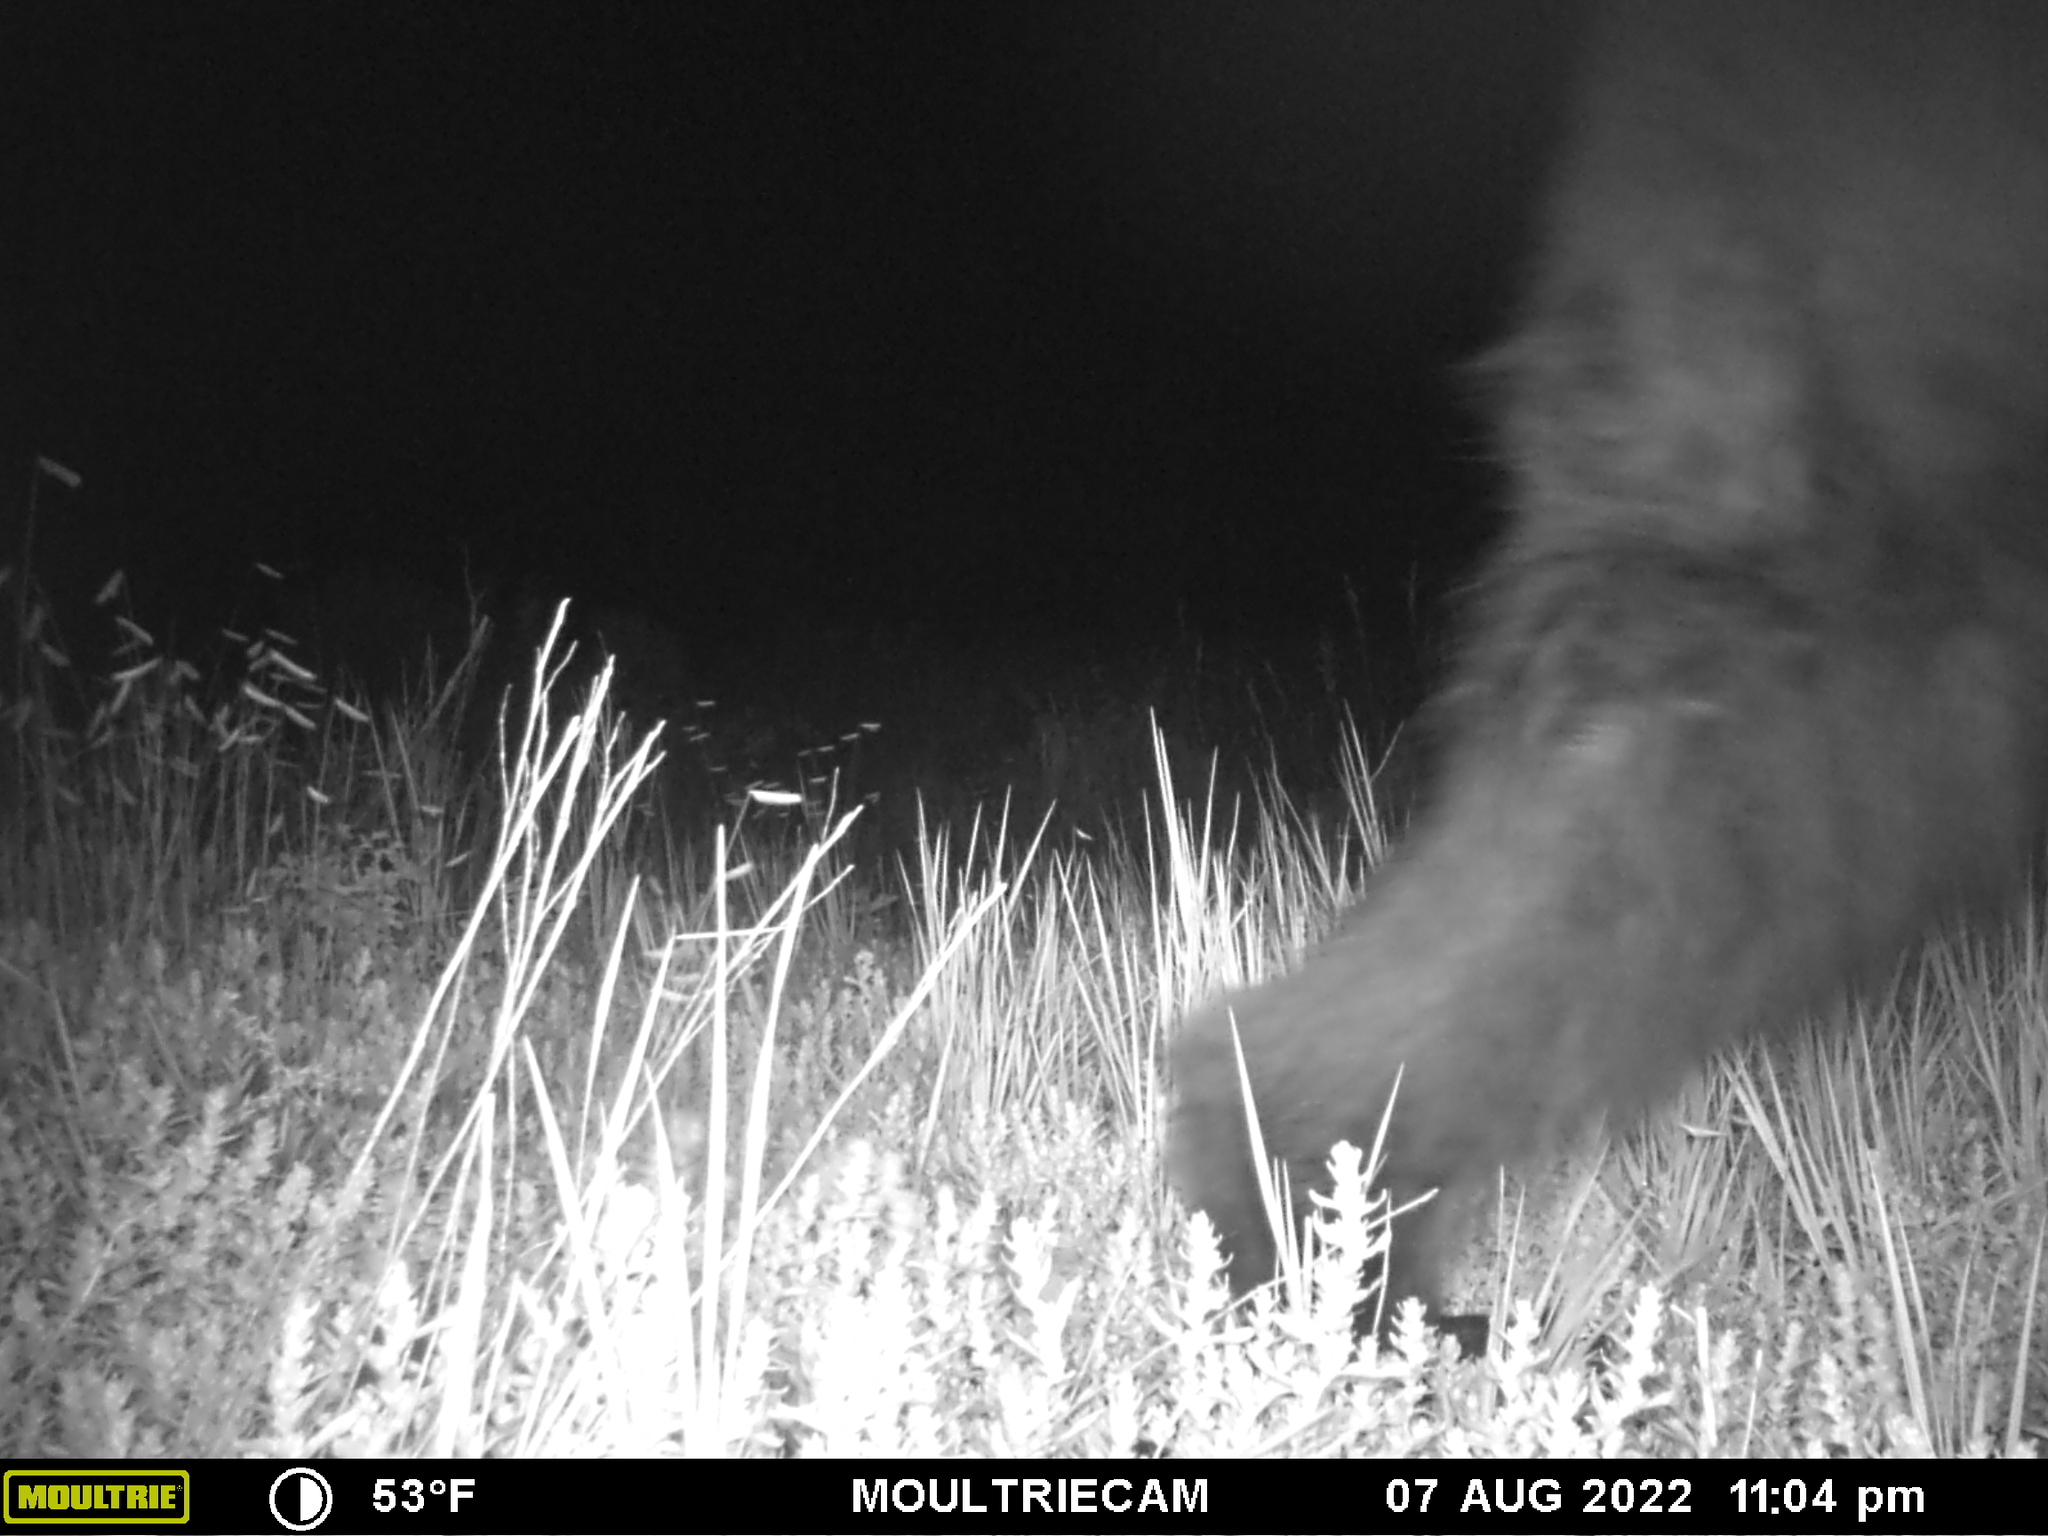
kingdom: Animalia
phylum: Chordata
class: Mammalia
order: Carnivora
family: Ursidae
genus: Ursus
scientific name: Ursus americanus
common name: American black bear
